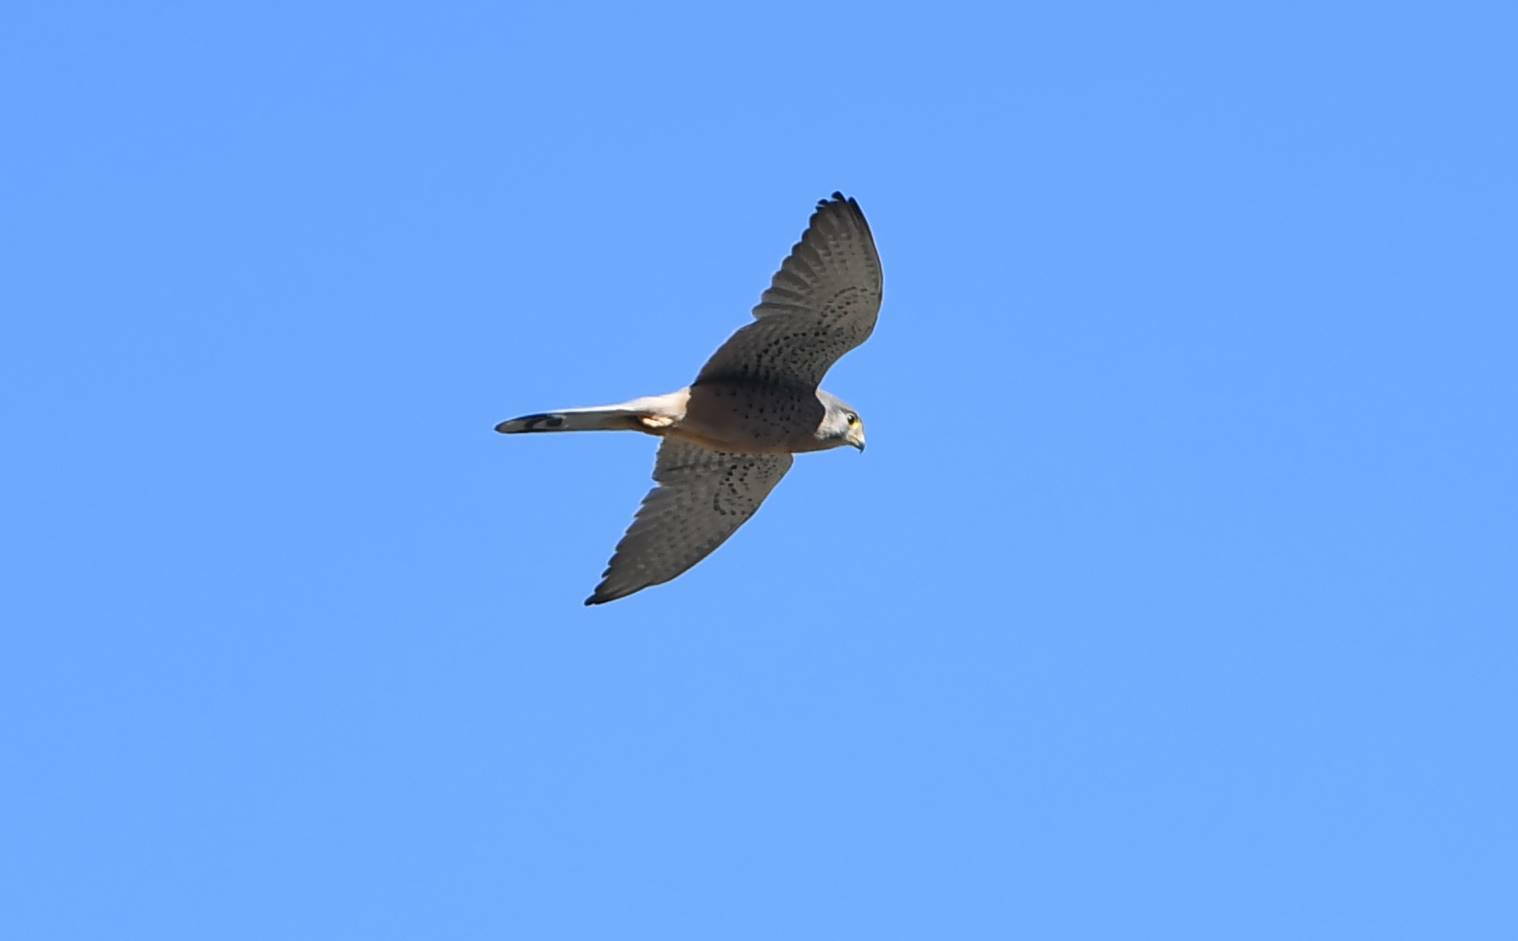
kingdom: Animalia
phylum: Chordata
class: Aves
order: Falconiformes
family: Falconidae
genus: Falco
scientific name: Falco tinnunculus
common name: Common kestrel
